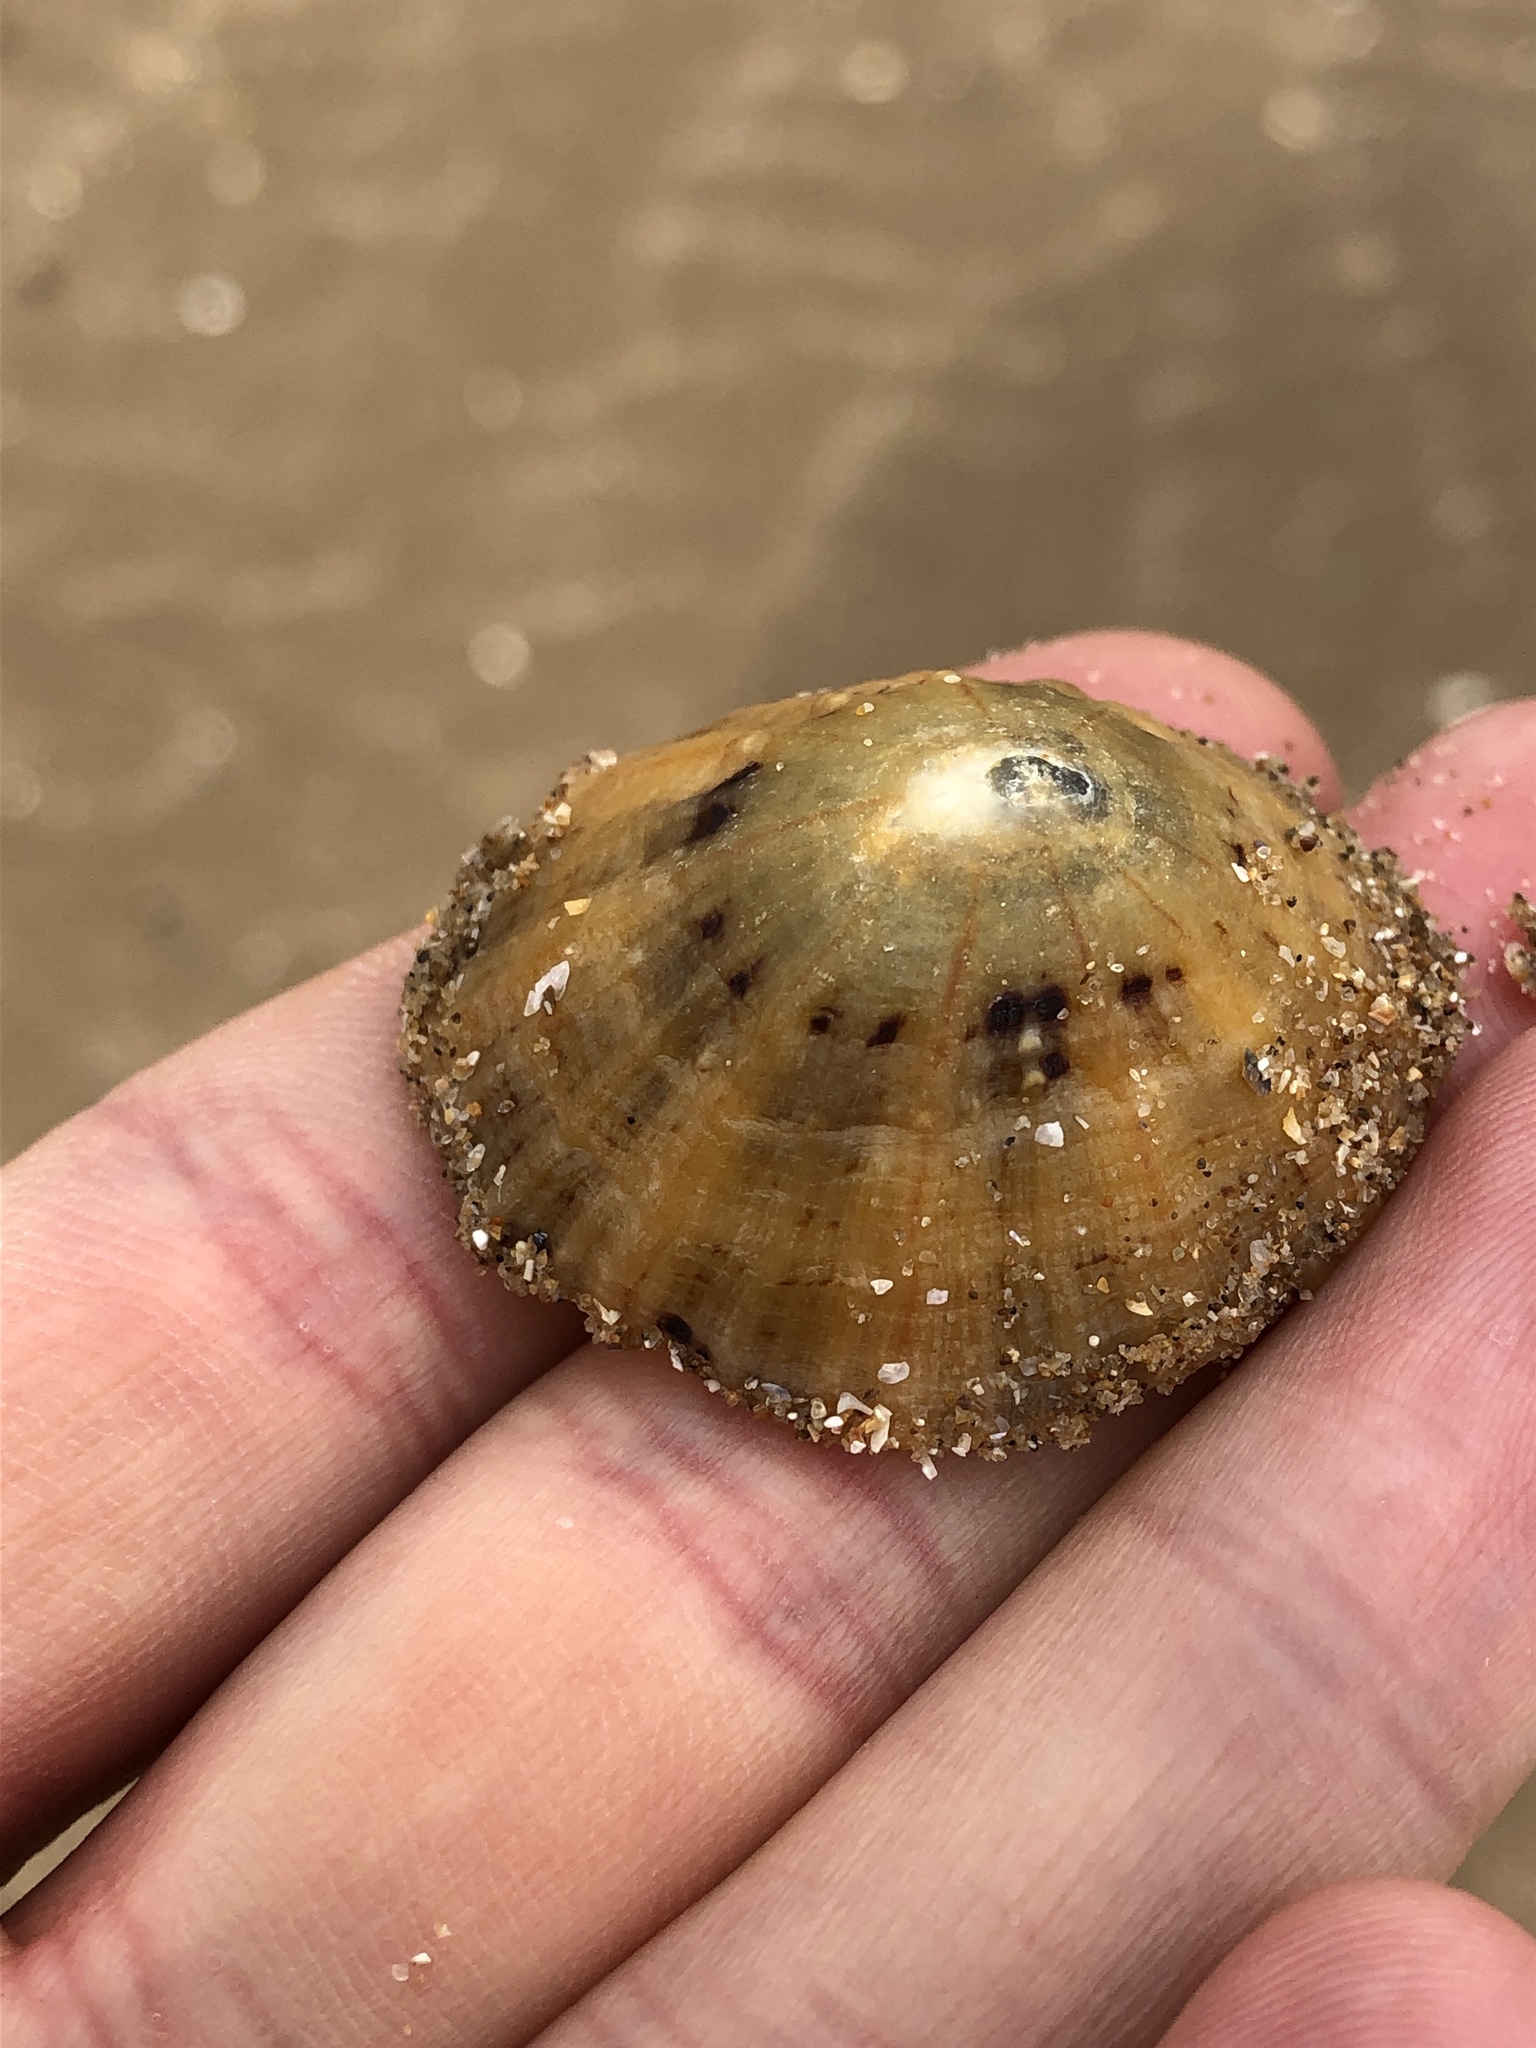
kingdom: Animalia
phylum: Mollusca
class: Gastropoda
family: Patellidae
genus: Patella
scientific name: Patella vulgata
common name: Common limpet
